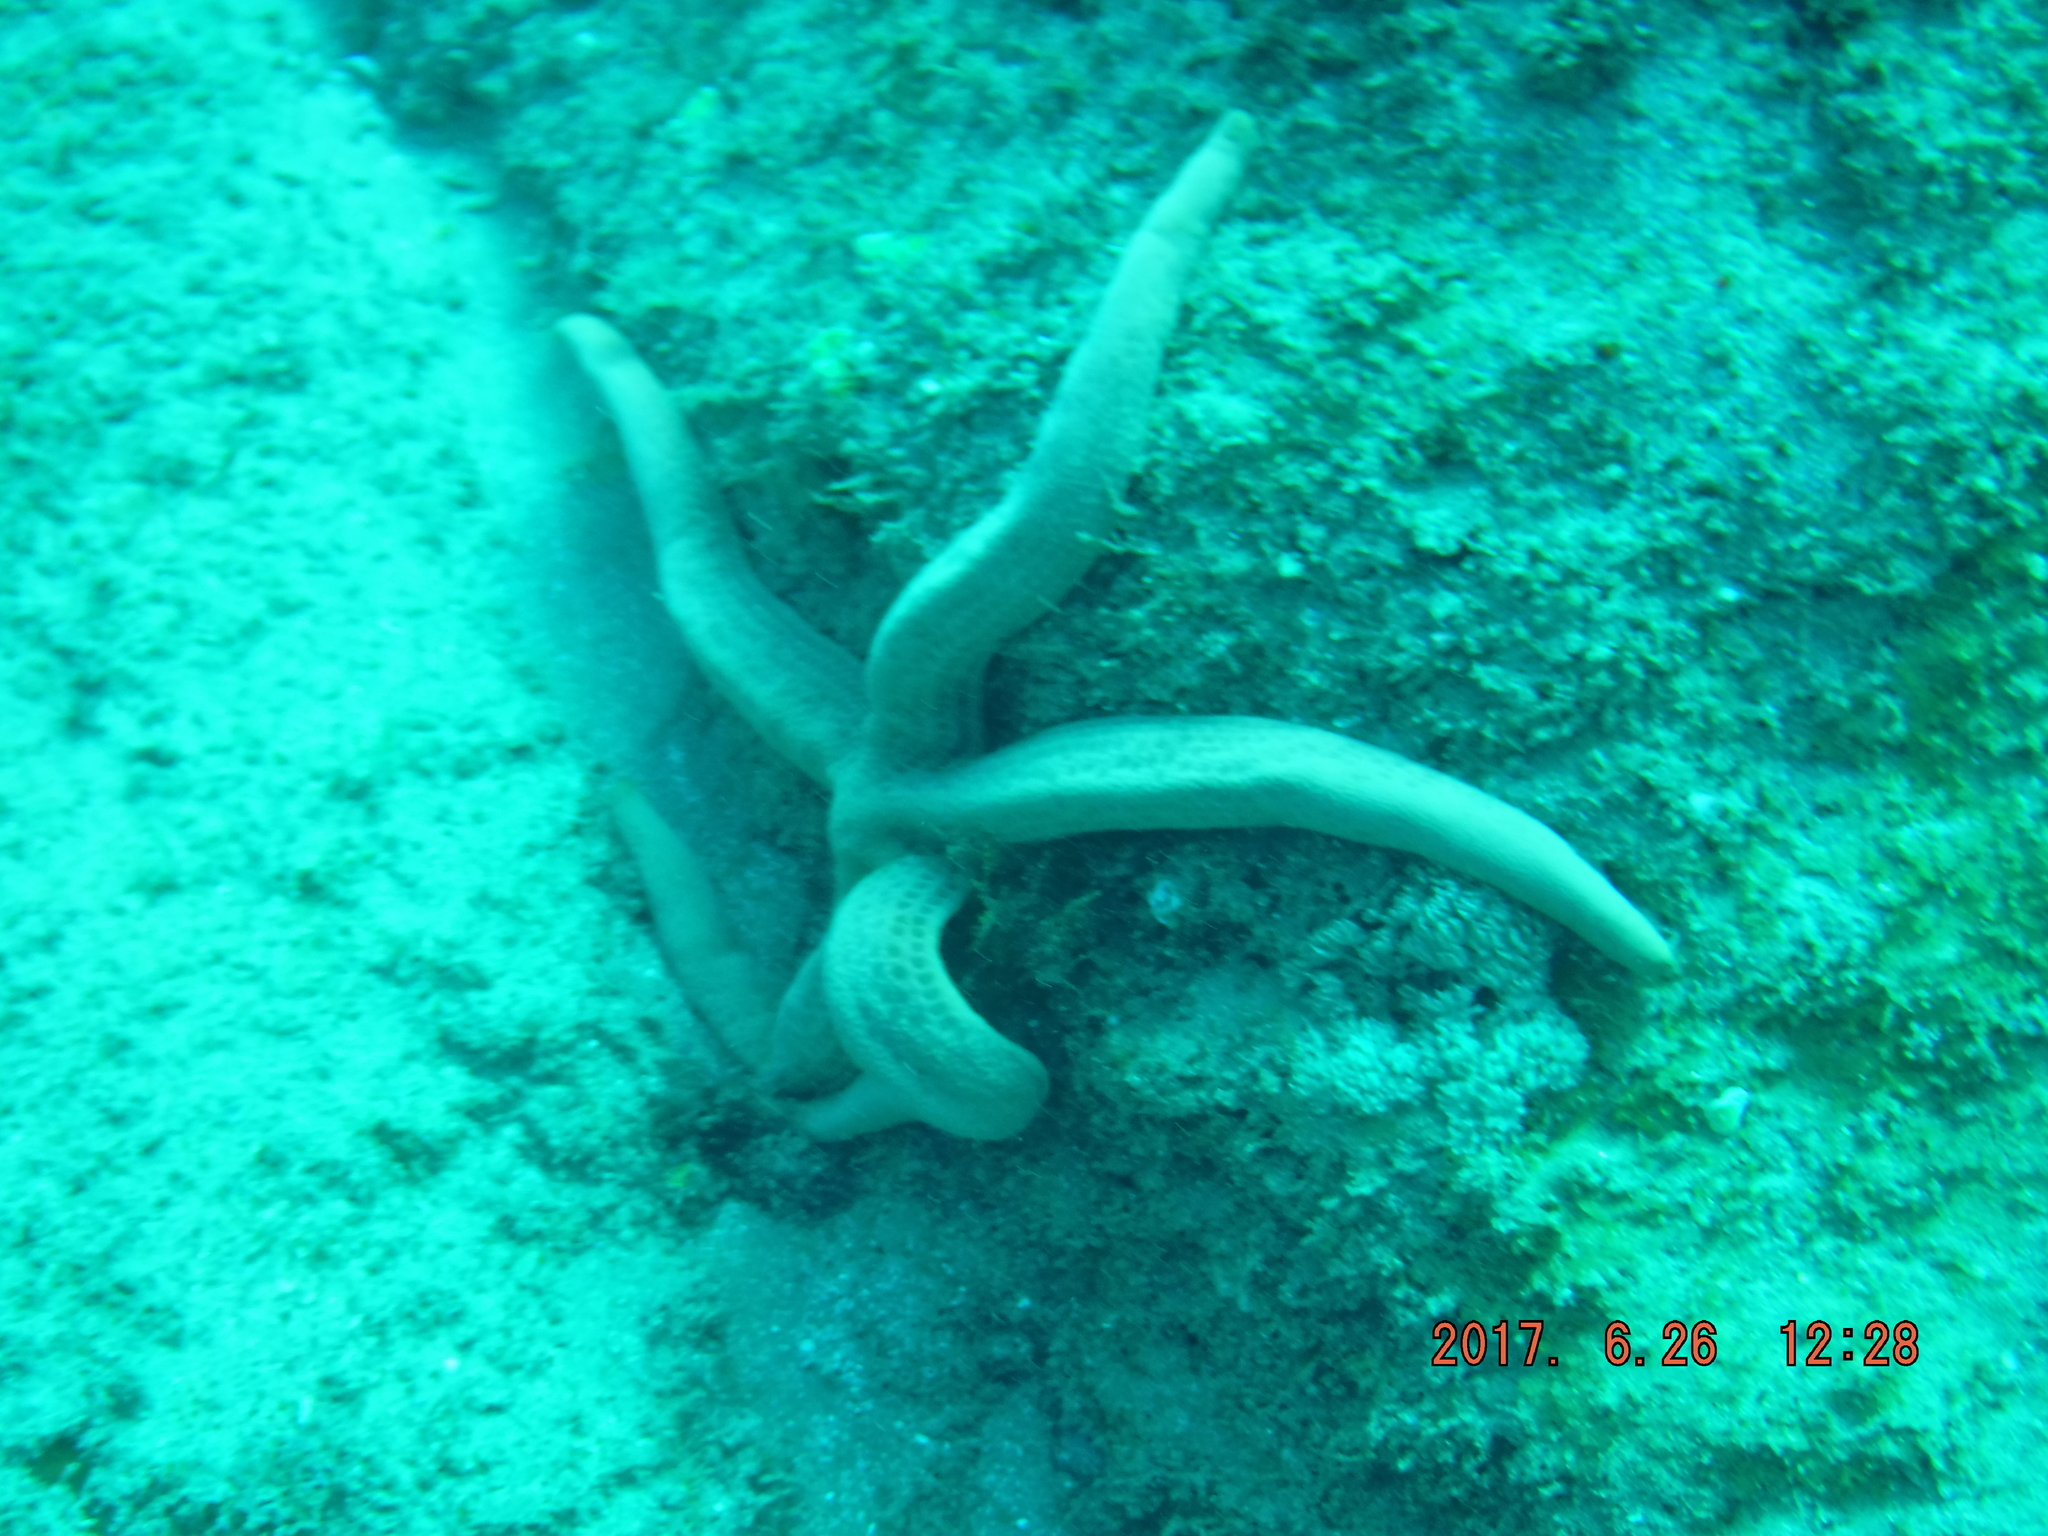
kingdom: Animalia
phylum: Echinodermata
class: Asteroidea
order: Valvatida
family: Ophidiasteridae
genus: Linckia
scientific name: Linckia multifora
